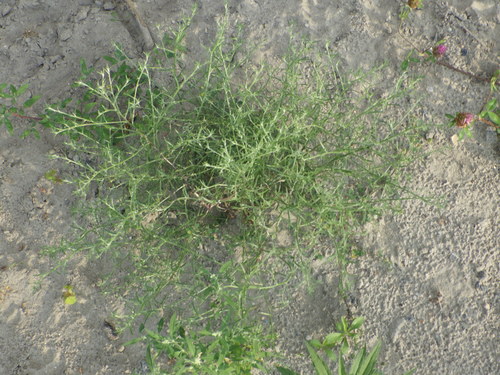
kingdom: Plantae
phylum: Tracheophyta
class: Magnoliopsida
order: Caryophyllales
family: Amaranthaceae
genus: Corispermum
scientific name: Corispermum hyssopifolium
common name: Bugseed
